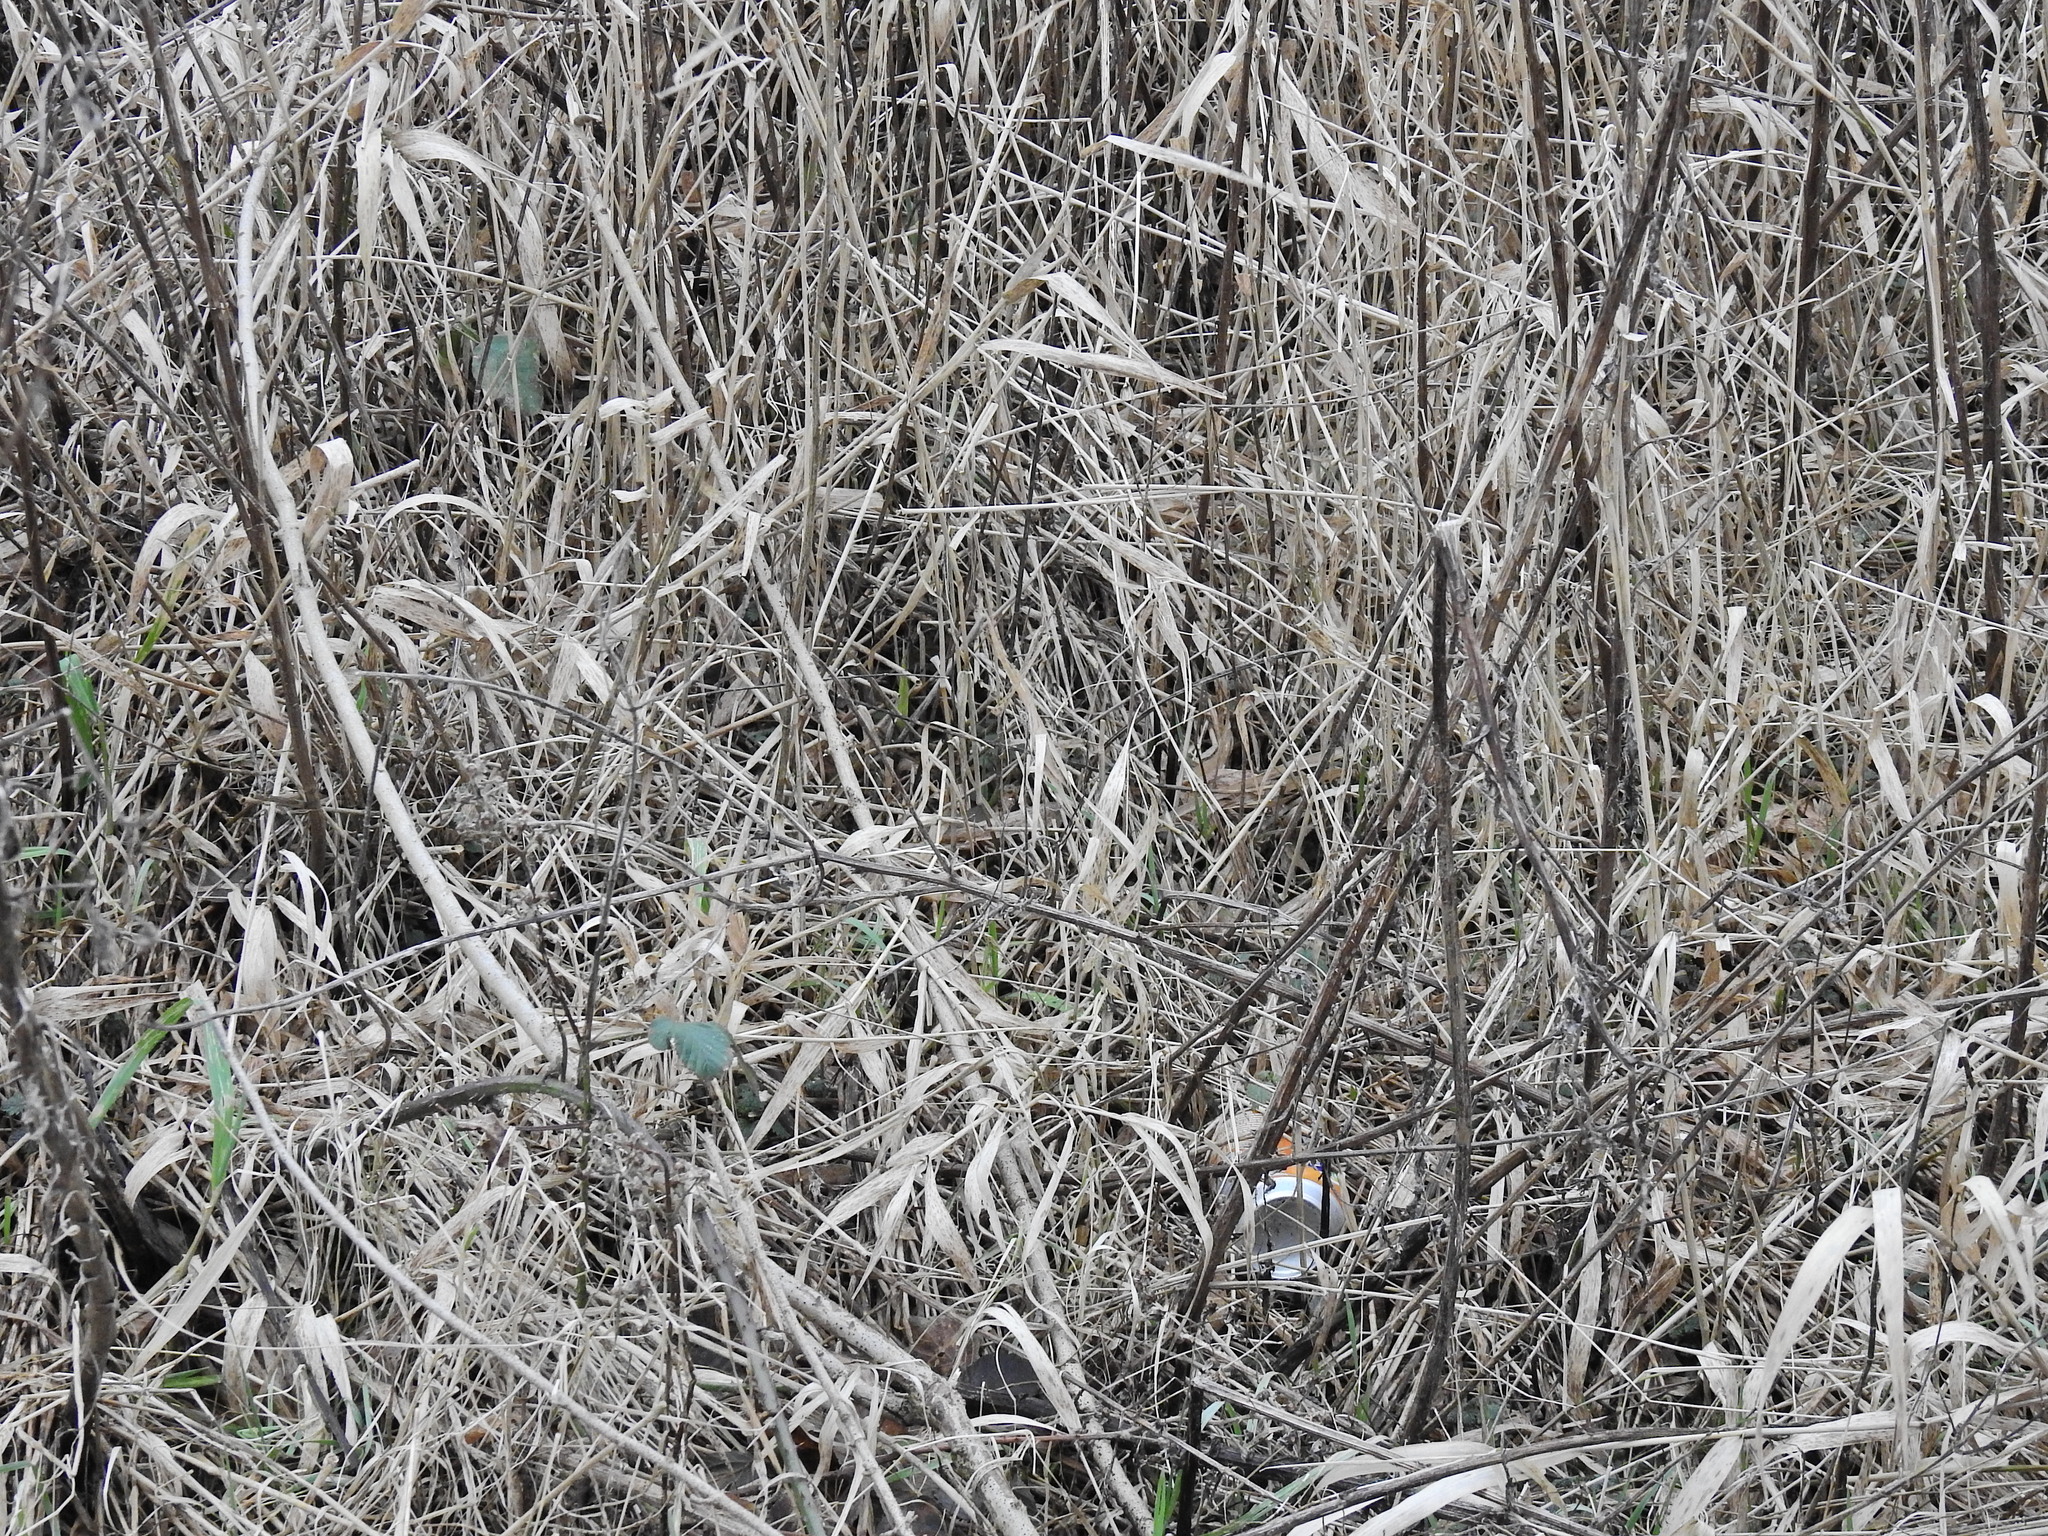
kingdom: Plantae
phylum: Tracheophyta
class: Liliopsida
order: Poales
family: Poaceae
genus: Phalaris
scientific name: Phalaris arundinacea
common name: Reed canary-grass
